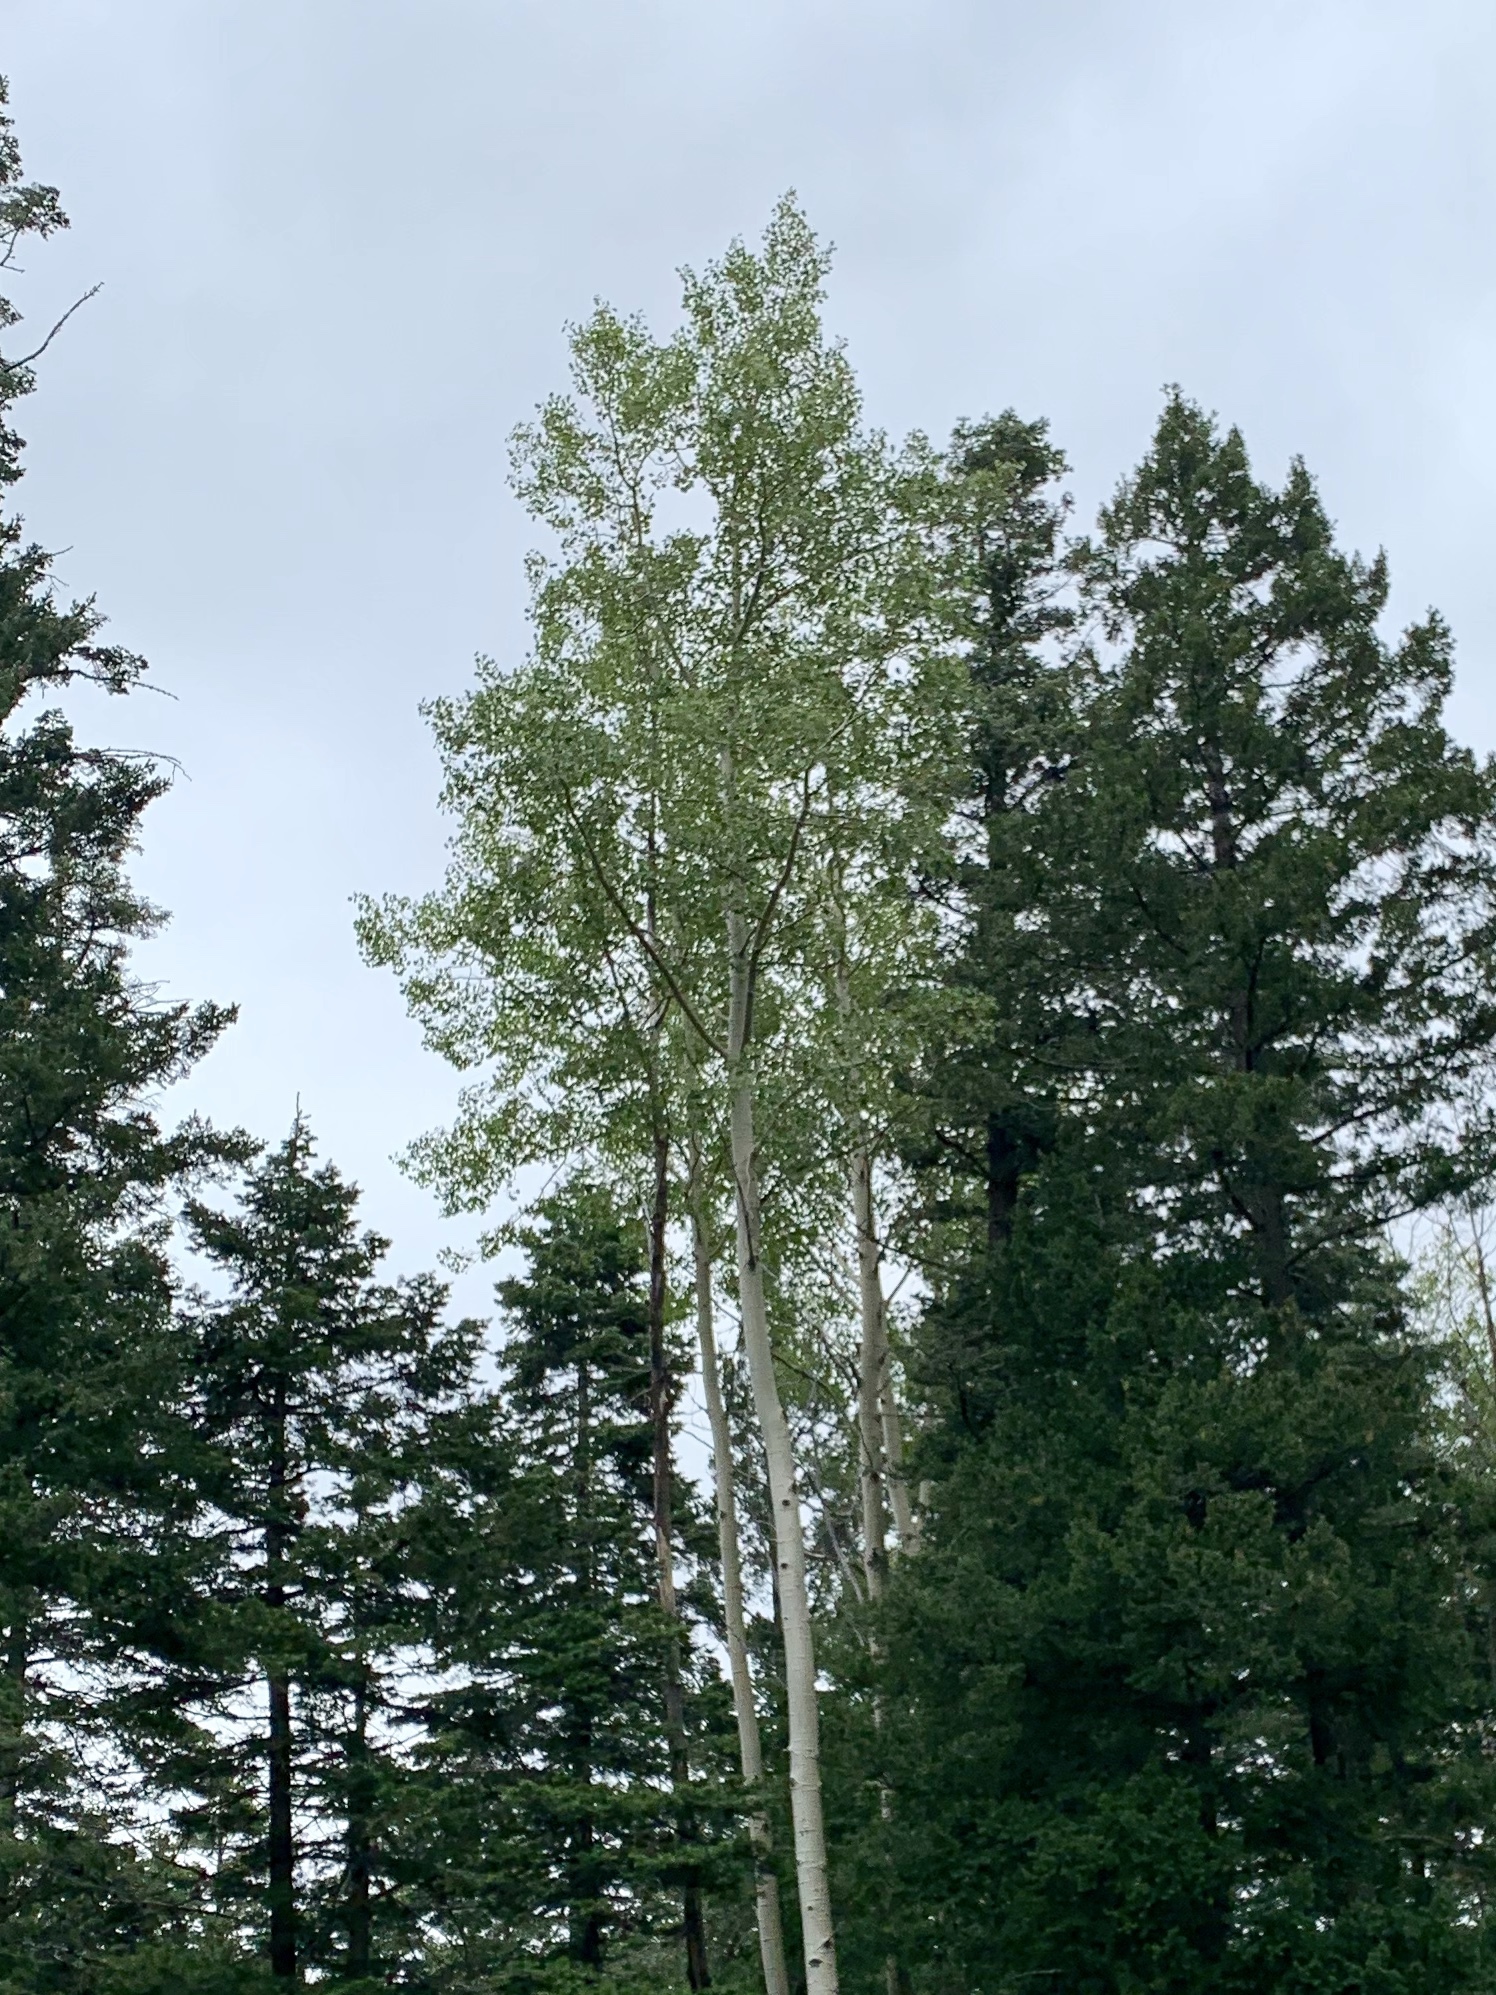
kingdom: Plantae
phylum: Tracheophyta
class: Magnoliopsida
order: Malpighiales
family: Salicaceae
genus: Populus
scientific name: Populus tremuloides
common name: Quaking aspen
